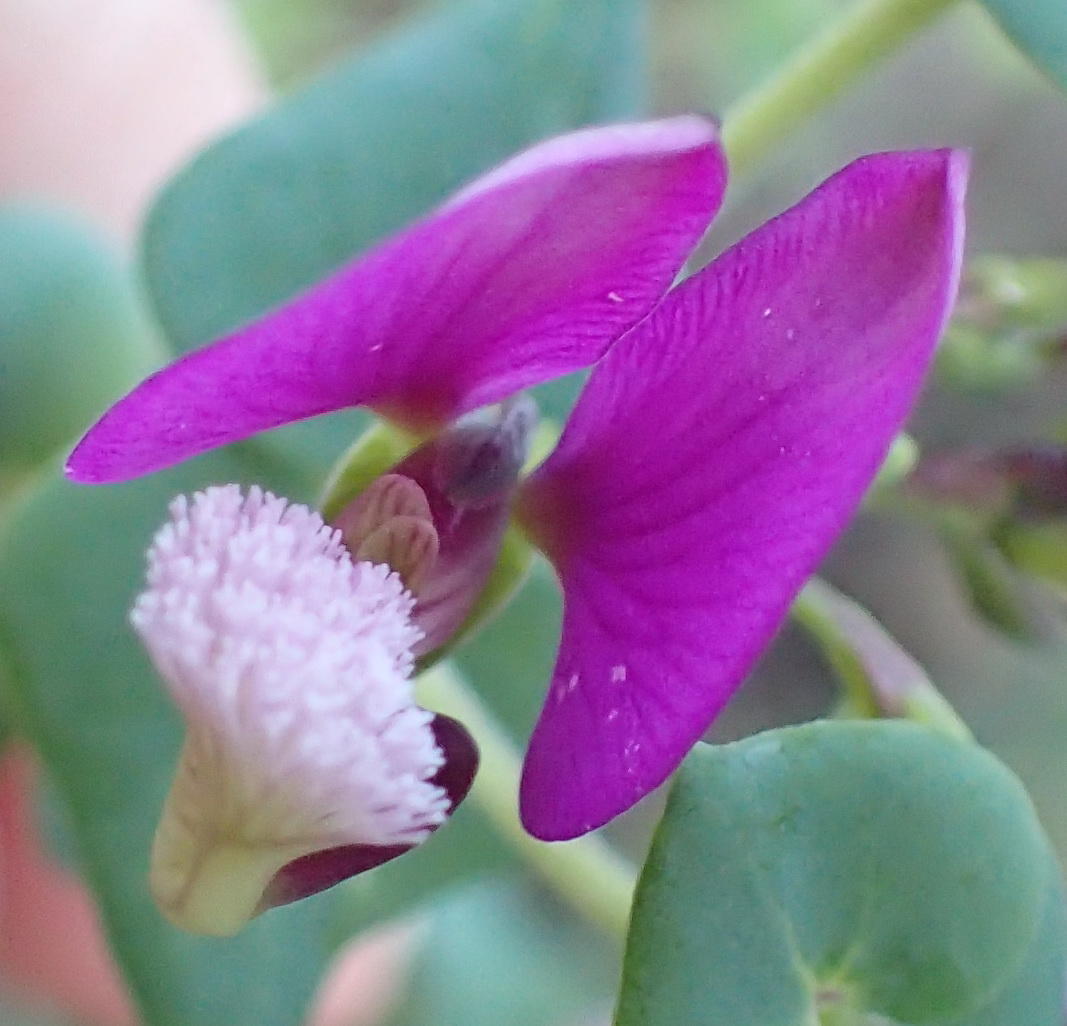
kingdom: Plantae
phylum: Tracheophyta
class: Magnoliopsida
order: Fabales
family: Polygalaceae
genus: Polygala
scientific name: Polygala fruticosa
